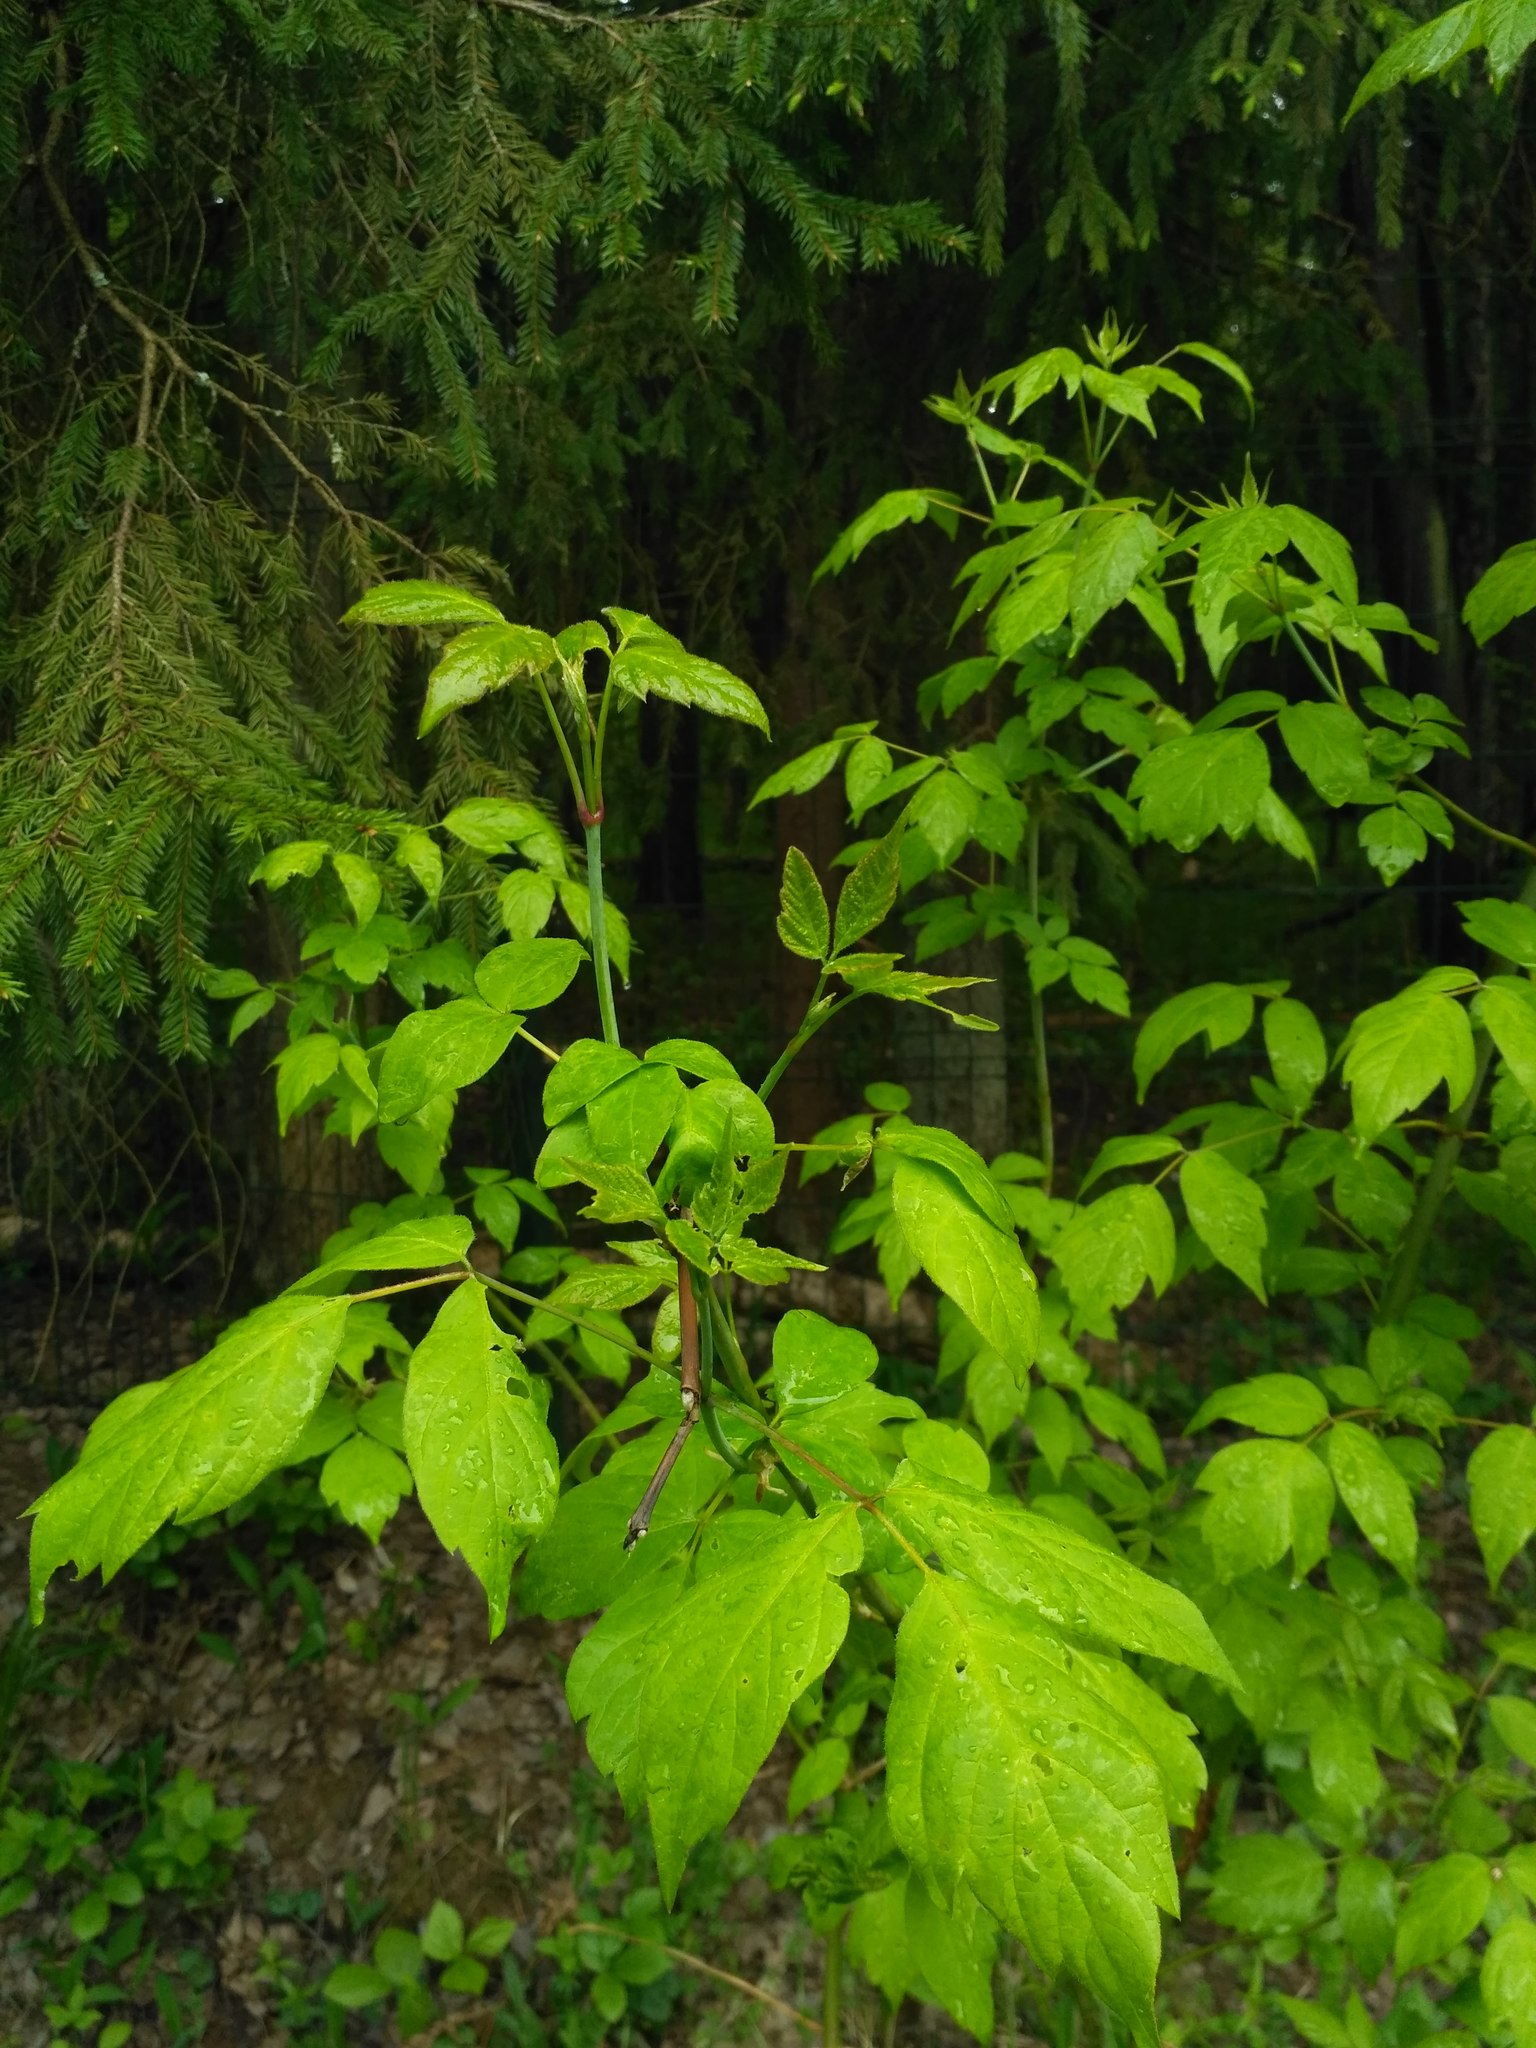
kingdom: Plantae
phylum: Tracheophyta
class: Magnoliopsida
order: Sapindales
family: Sapindaceae
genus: Acer
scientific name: Acer negundo
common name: Ashleaf maple
